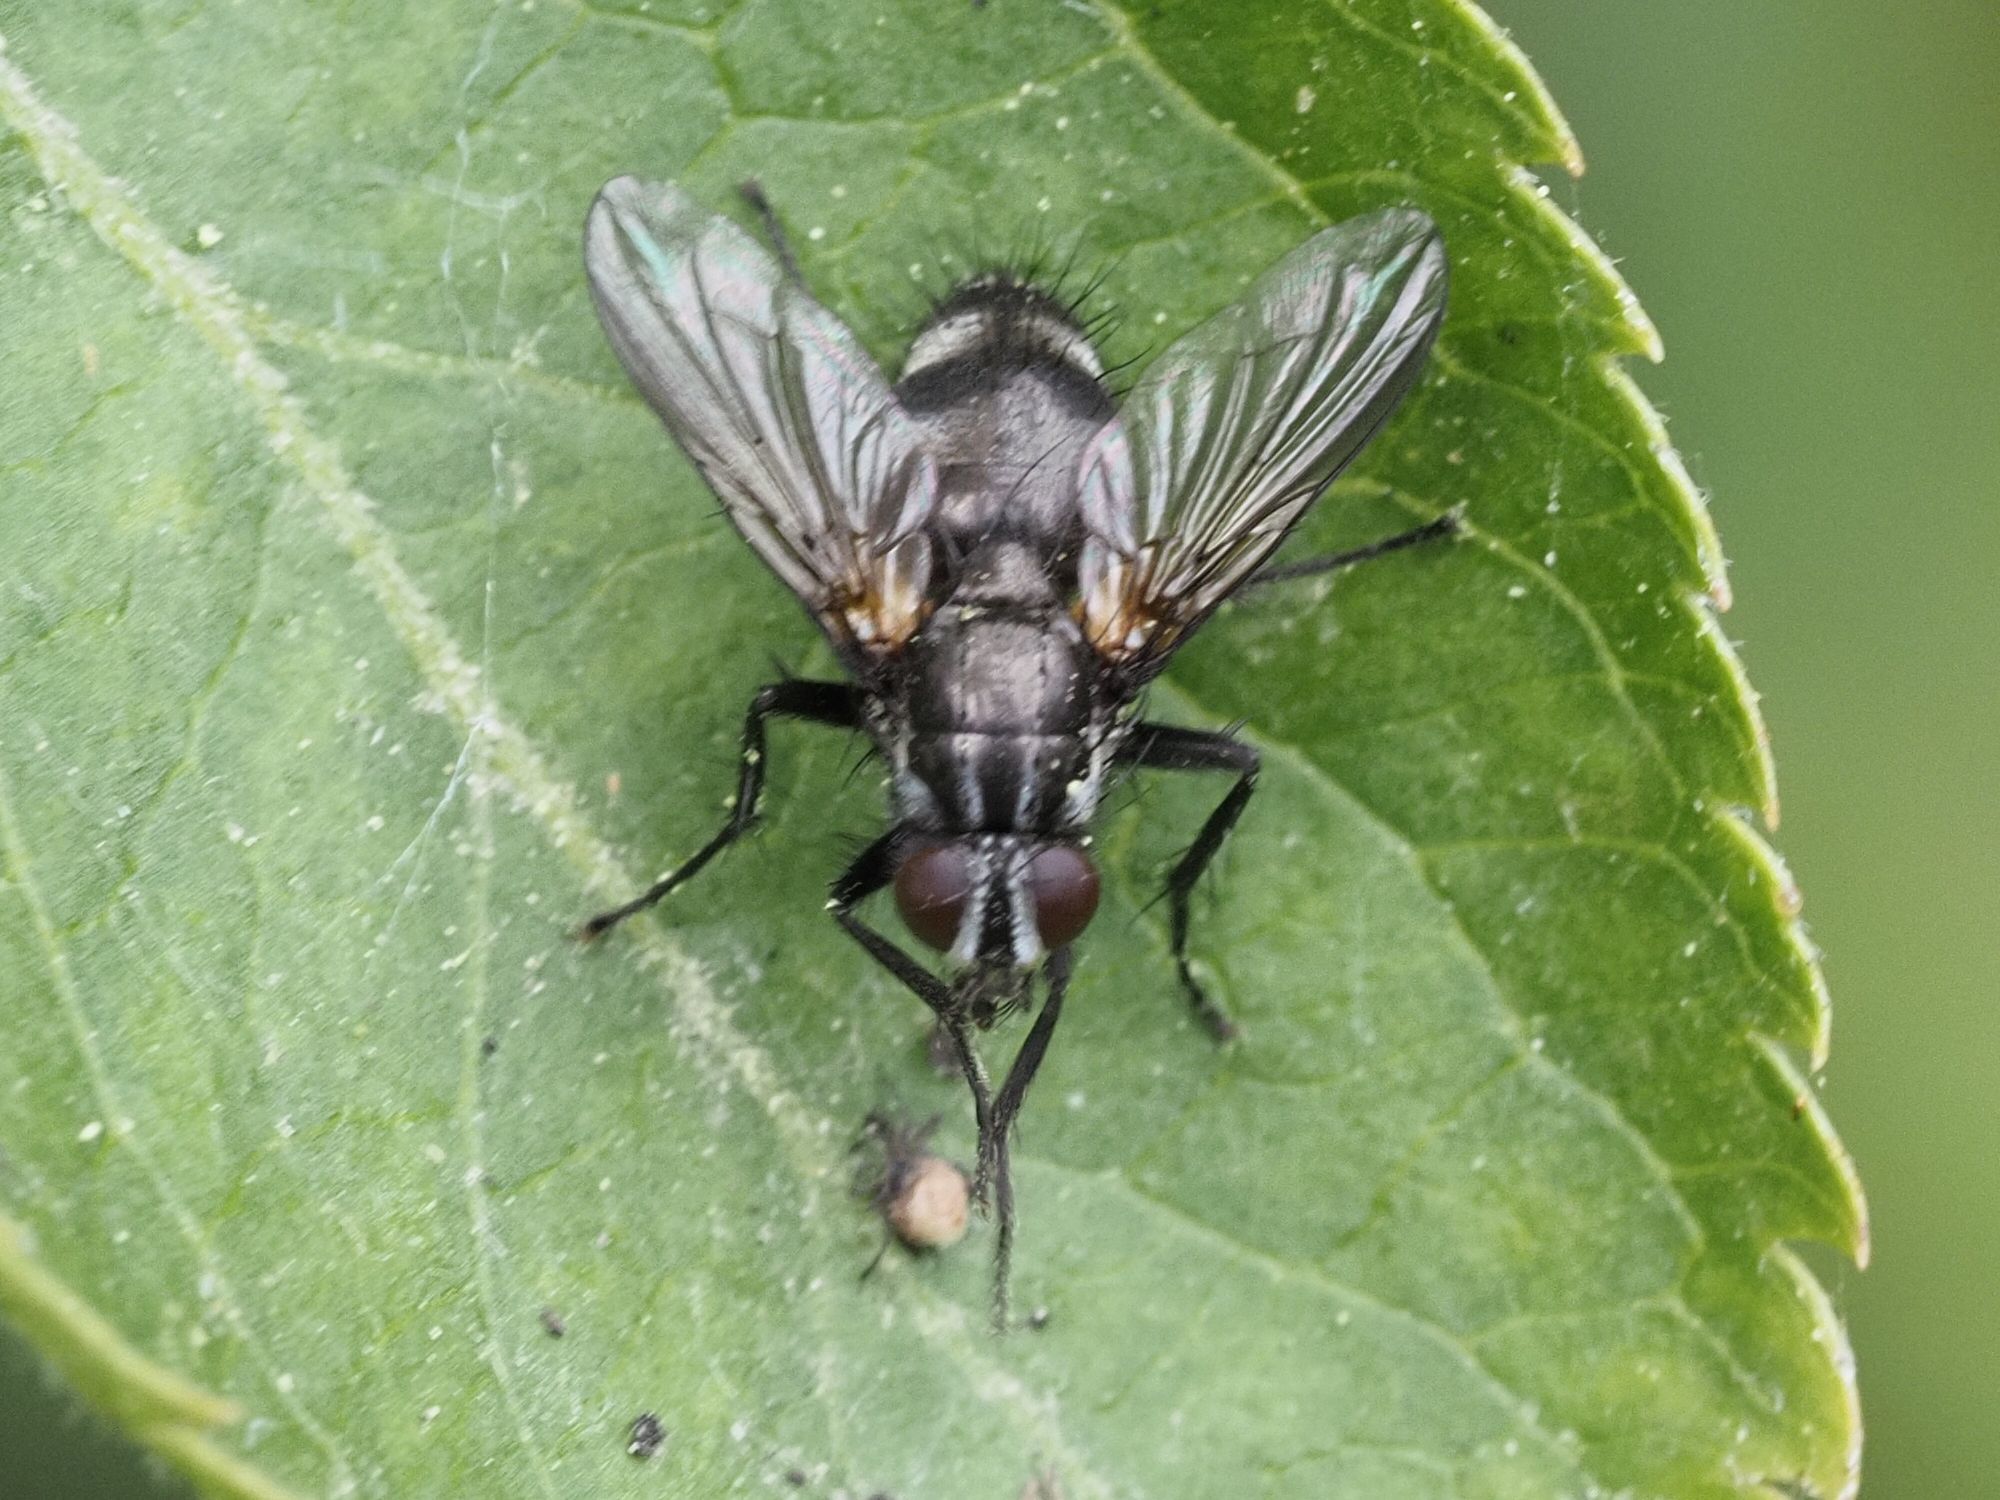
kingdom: Animalia
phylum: Arthropoda
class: Insecta
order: Diptera
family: Calliphoridae
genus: Rhinomorinia
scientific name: Rhinomorinia sarcophagina
